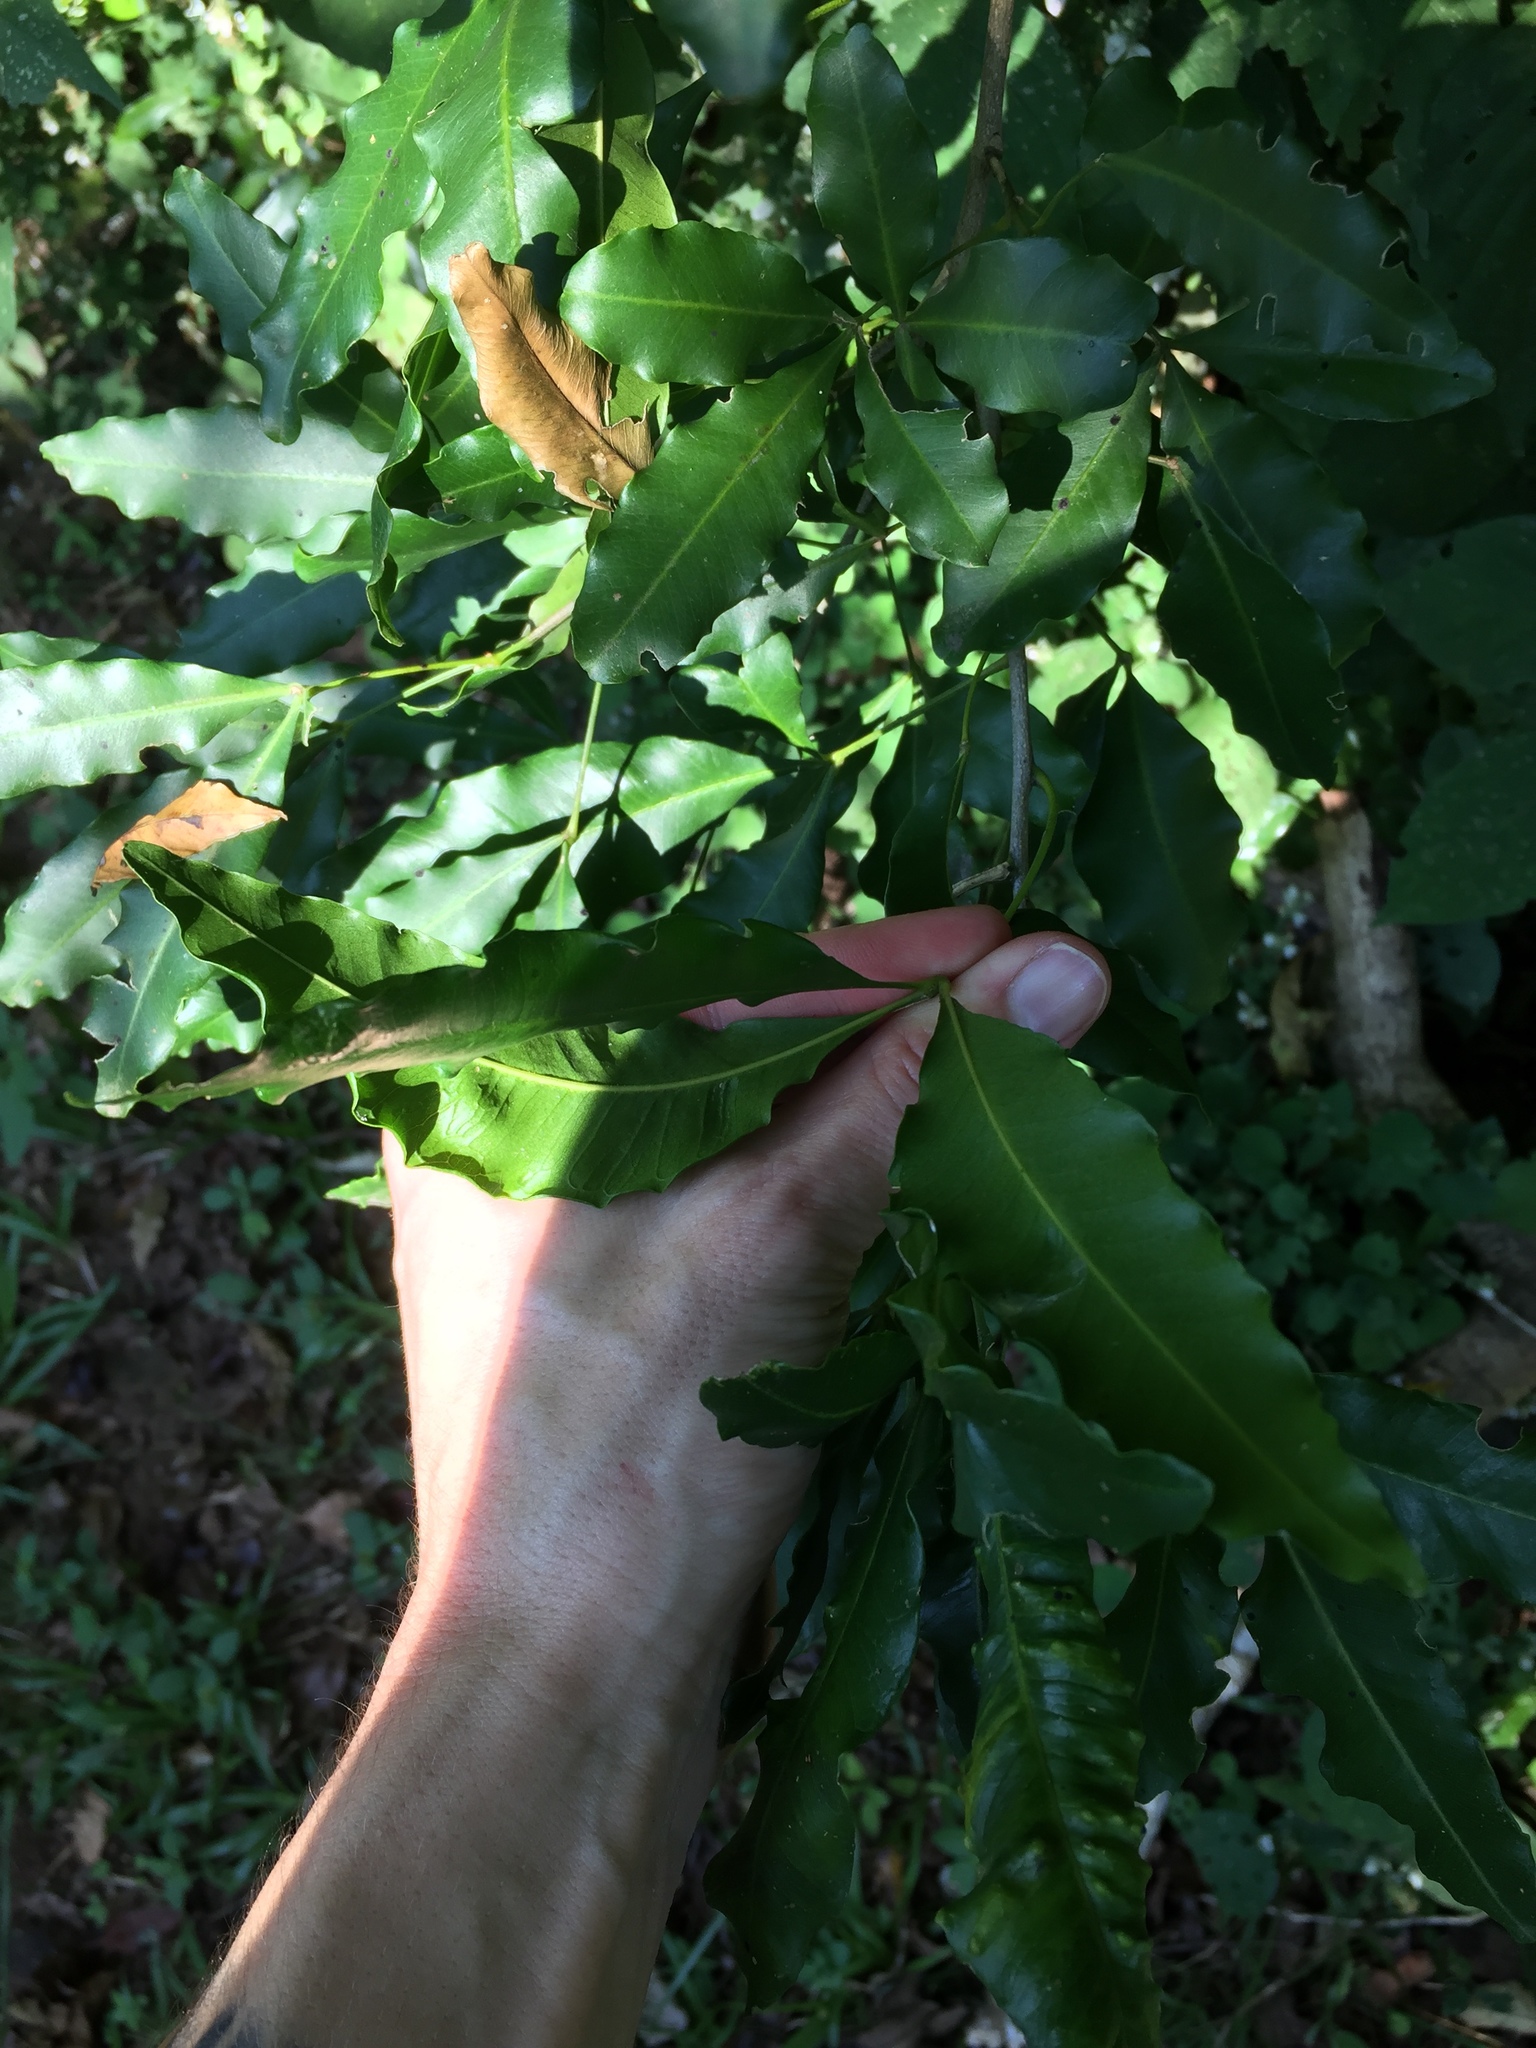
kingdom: Plantae
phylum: Tracheophyta
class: Magnoliopsida
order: Sapindales
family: Rutaceae
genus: Vepris
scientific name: Vepris lanceolata
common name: White ironwood
